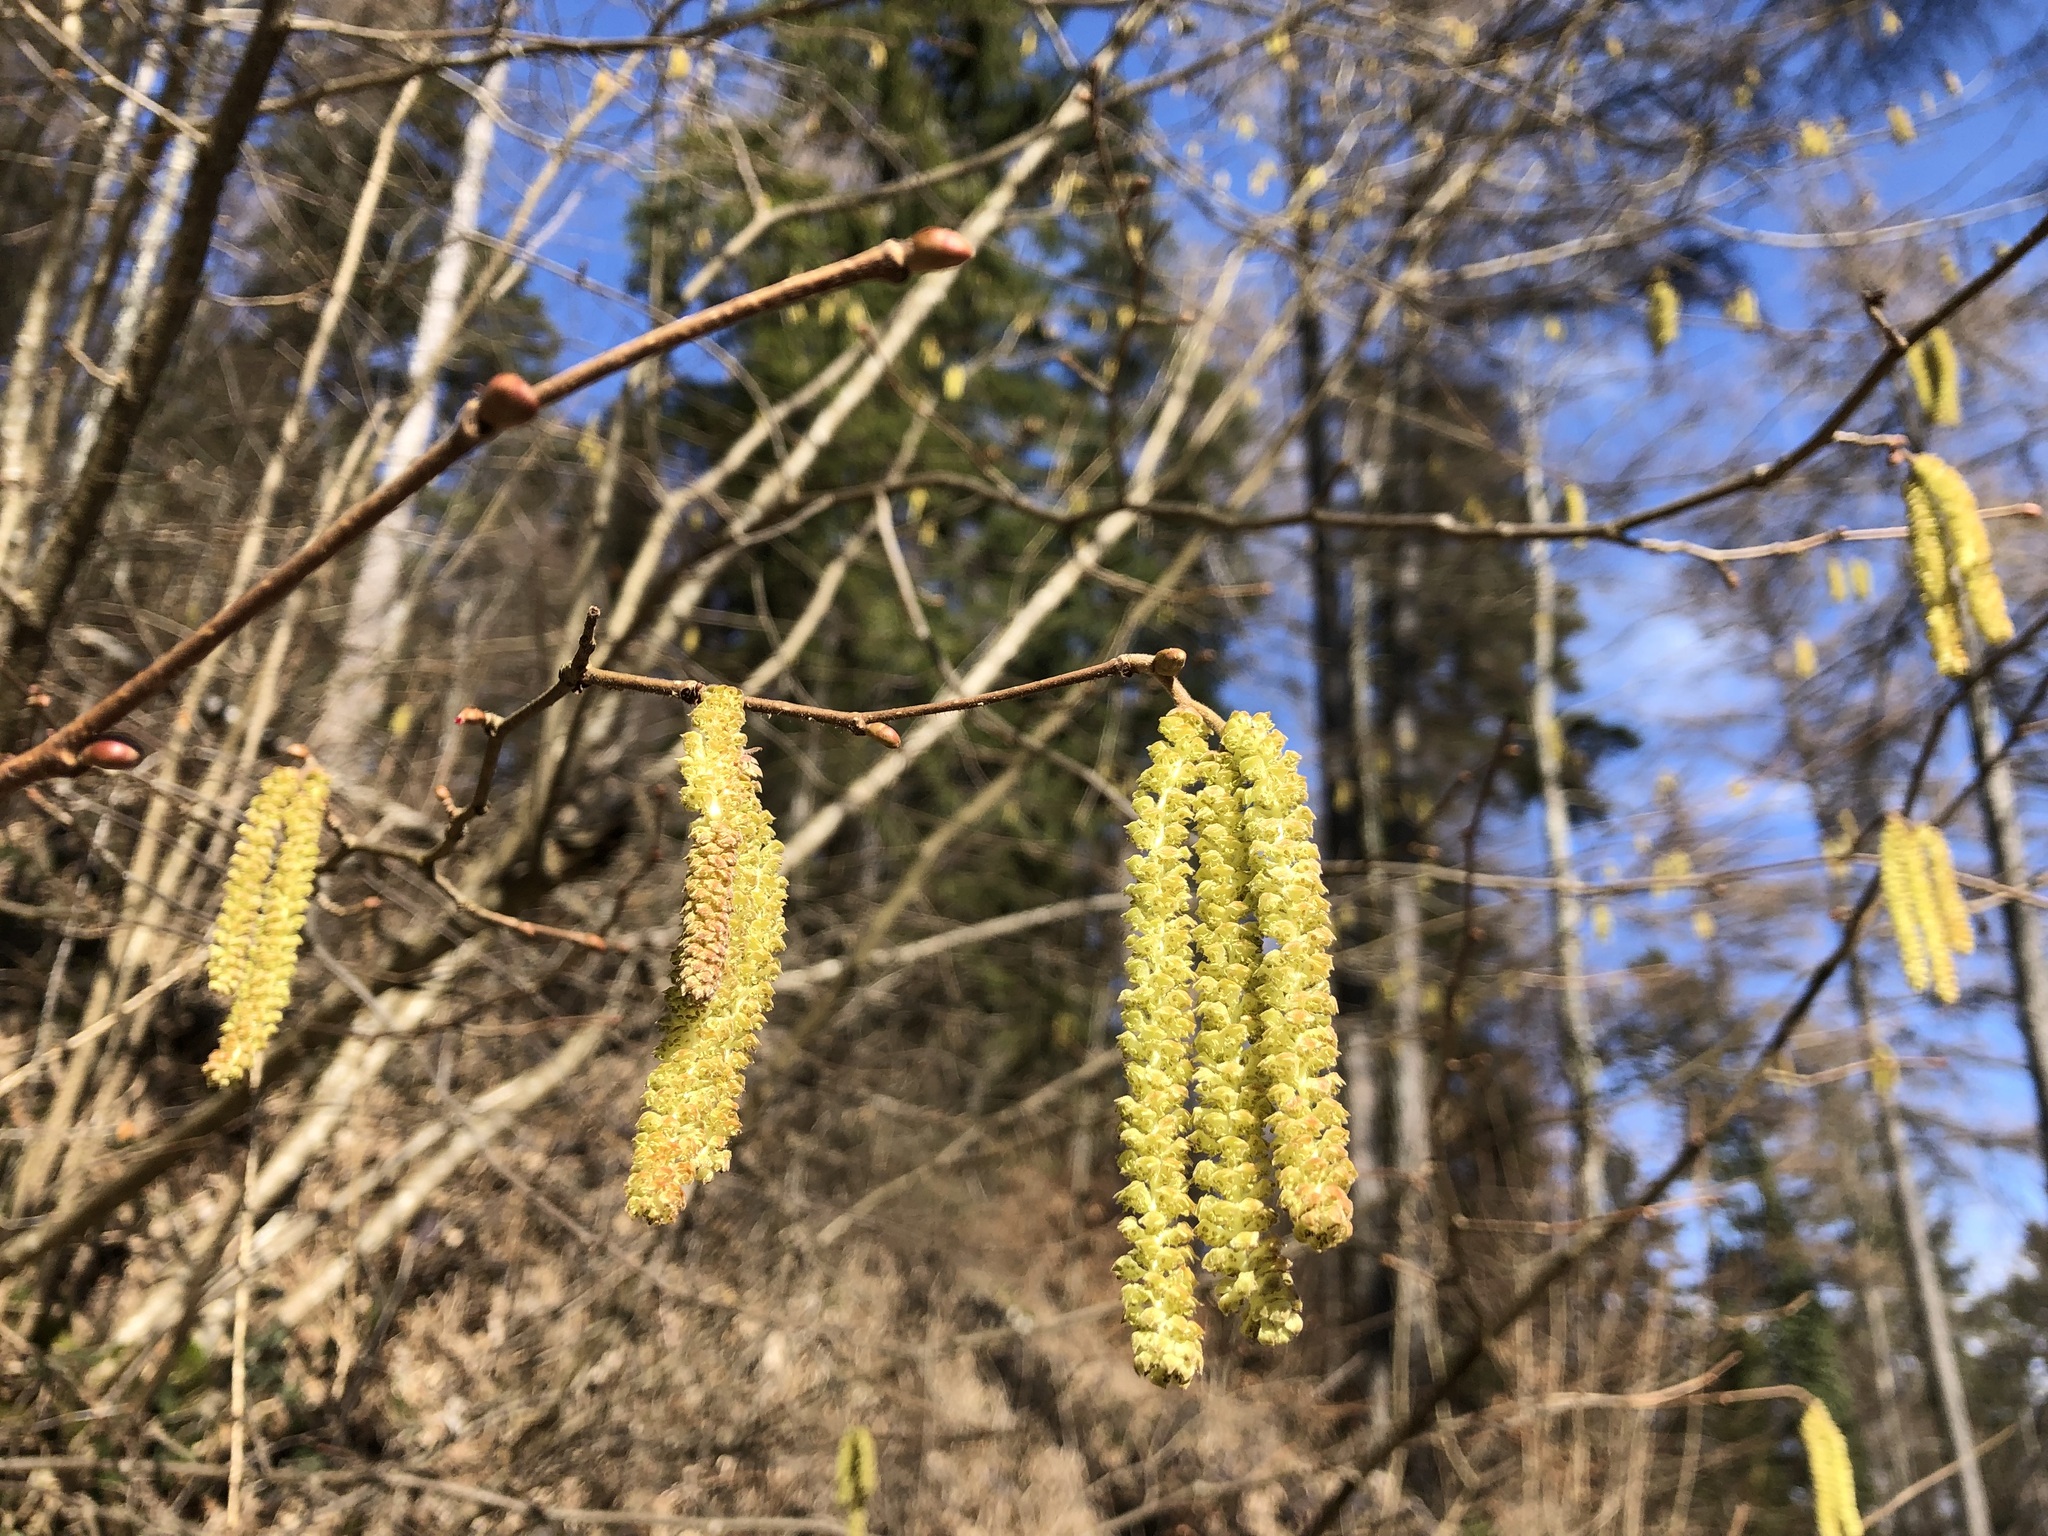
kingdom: Plantae
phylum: Tracheophyta
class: Magnoliopsida
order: Fagales
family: Betulaceae
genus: Corylus
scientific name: Corylus avellana
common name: European hazel
